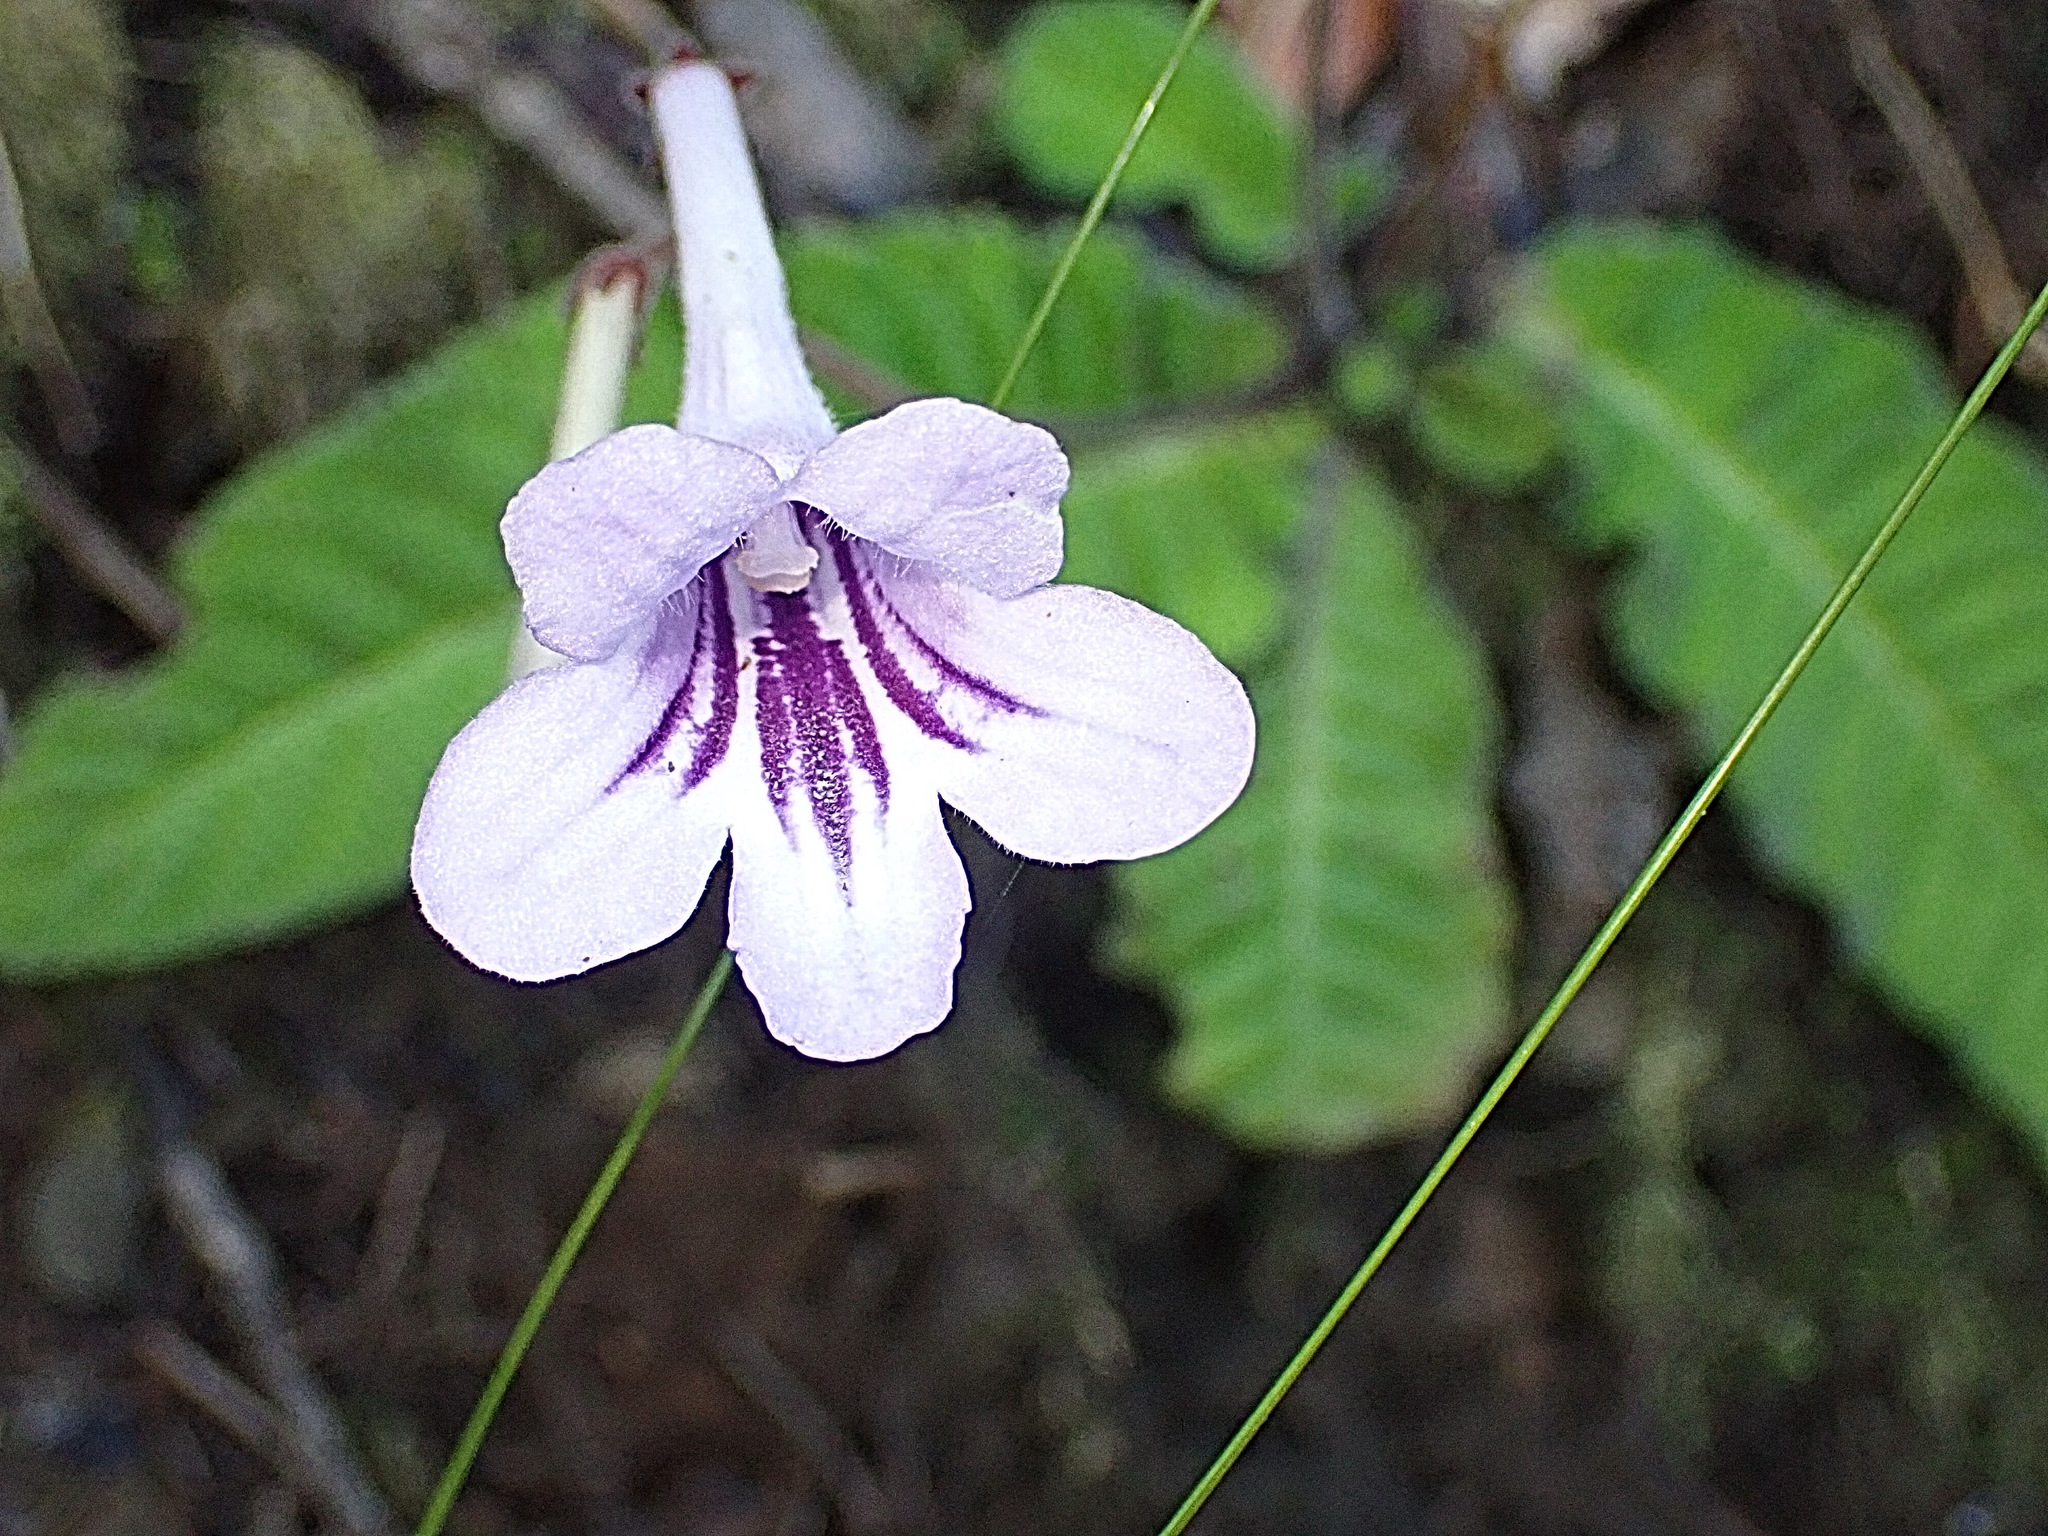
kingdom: Plantae
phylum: Tracheophyta
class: Magnoliopsida
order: Lamiales
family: Gesneriaceae
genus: Streptocarpus
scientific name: Streptocarpus rexii
